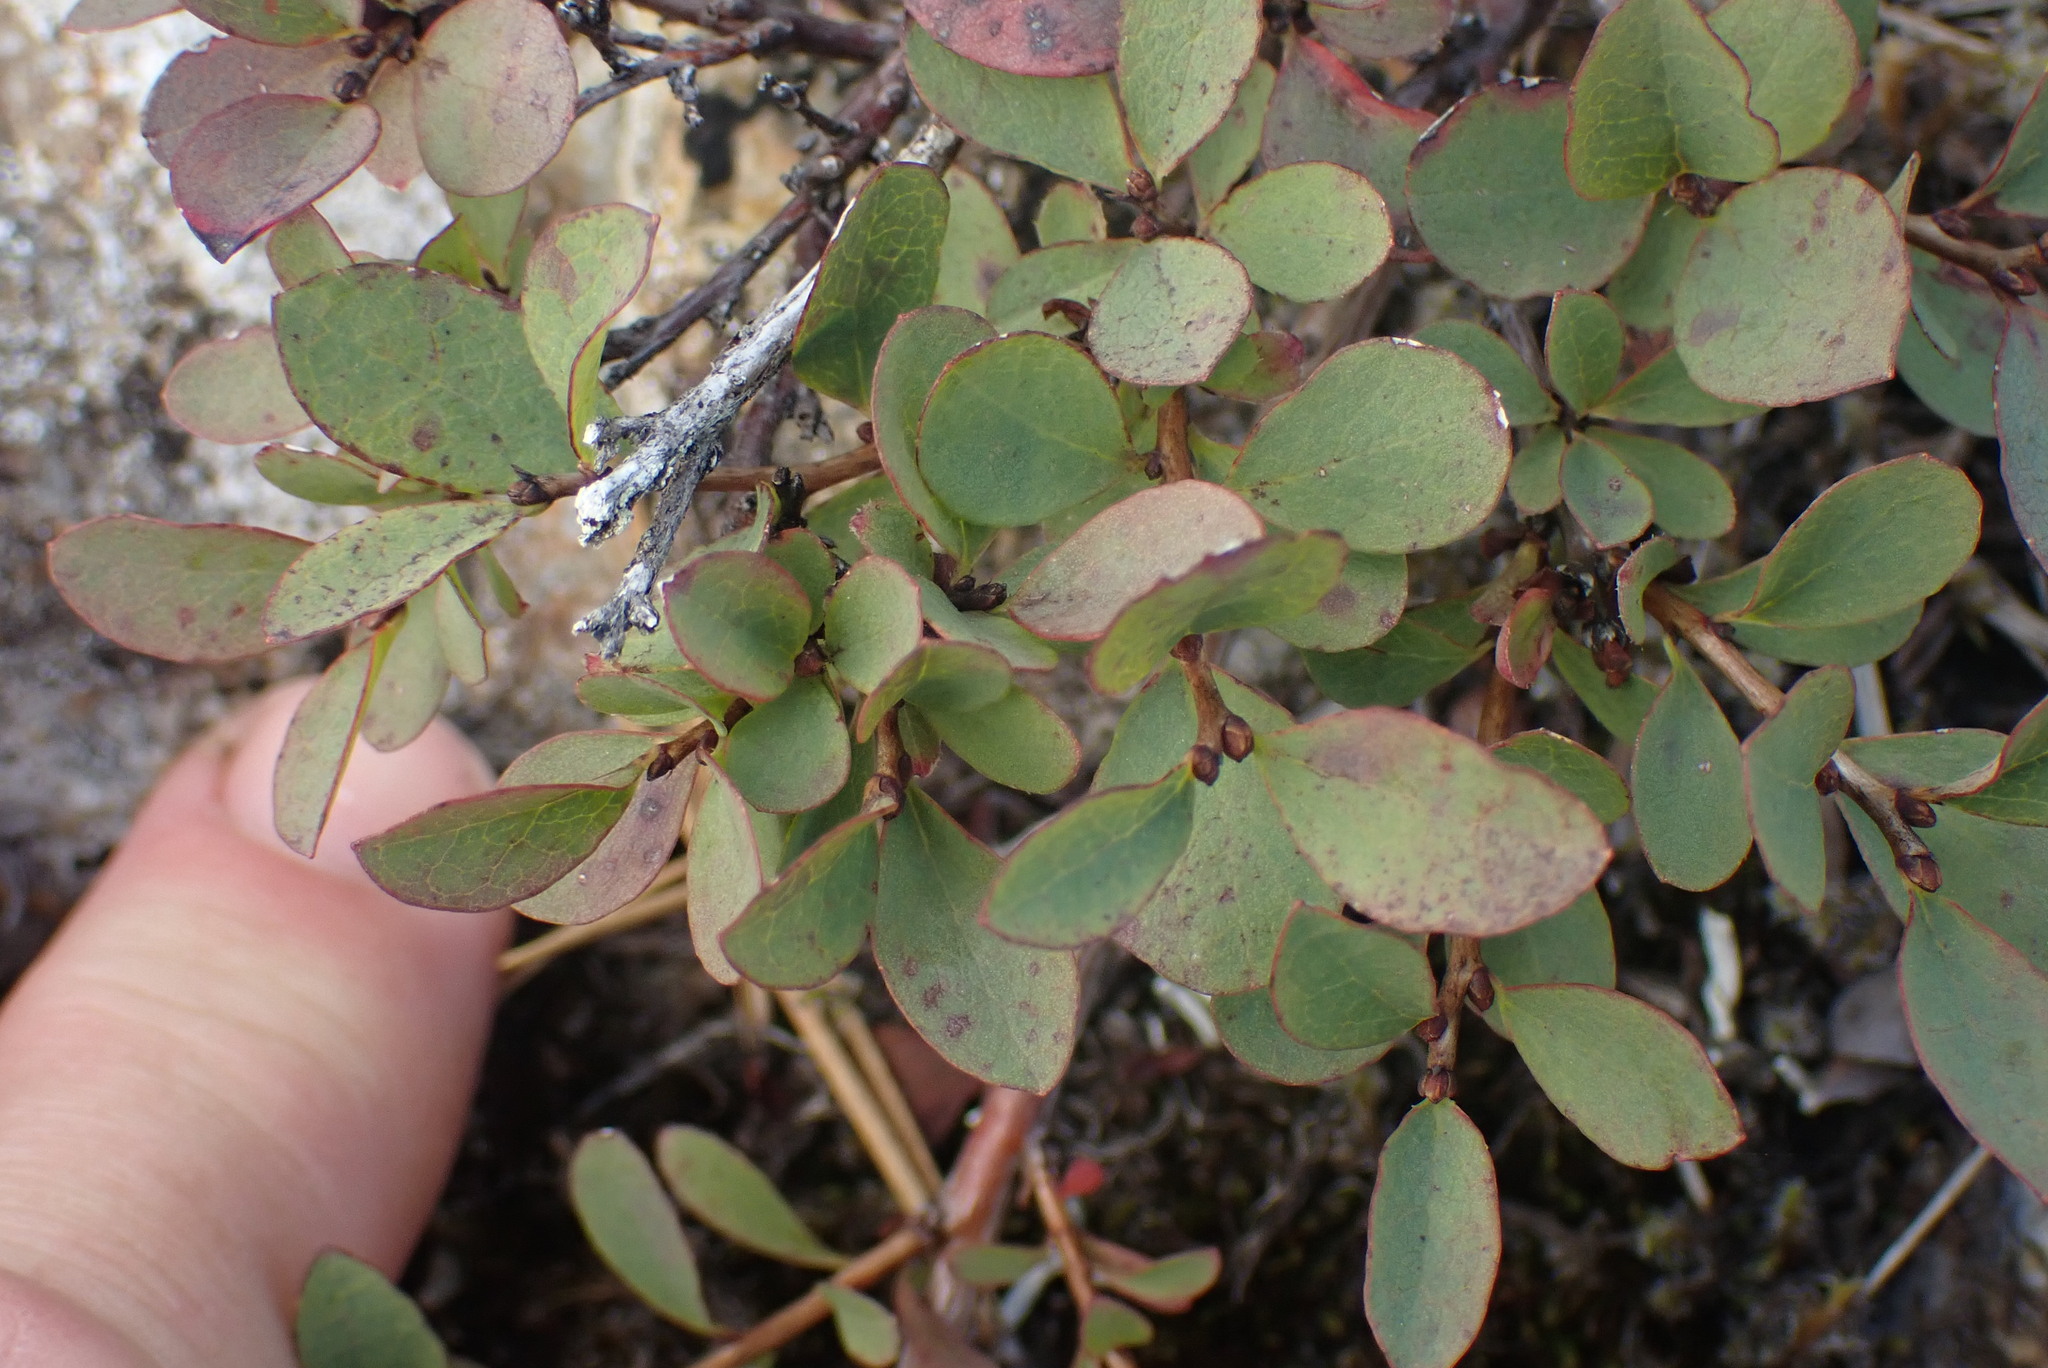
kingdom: Plantae
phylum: Tracheophyta
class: Magnoliopsida
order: Ericales
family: Ericaceae
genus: Vaccinium
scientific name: Vaccinium uliginosum
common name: Bog bilberry
